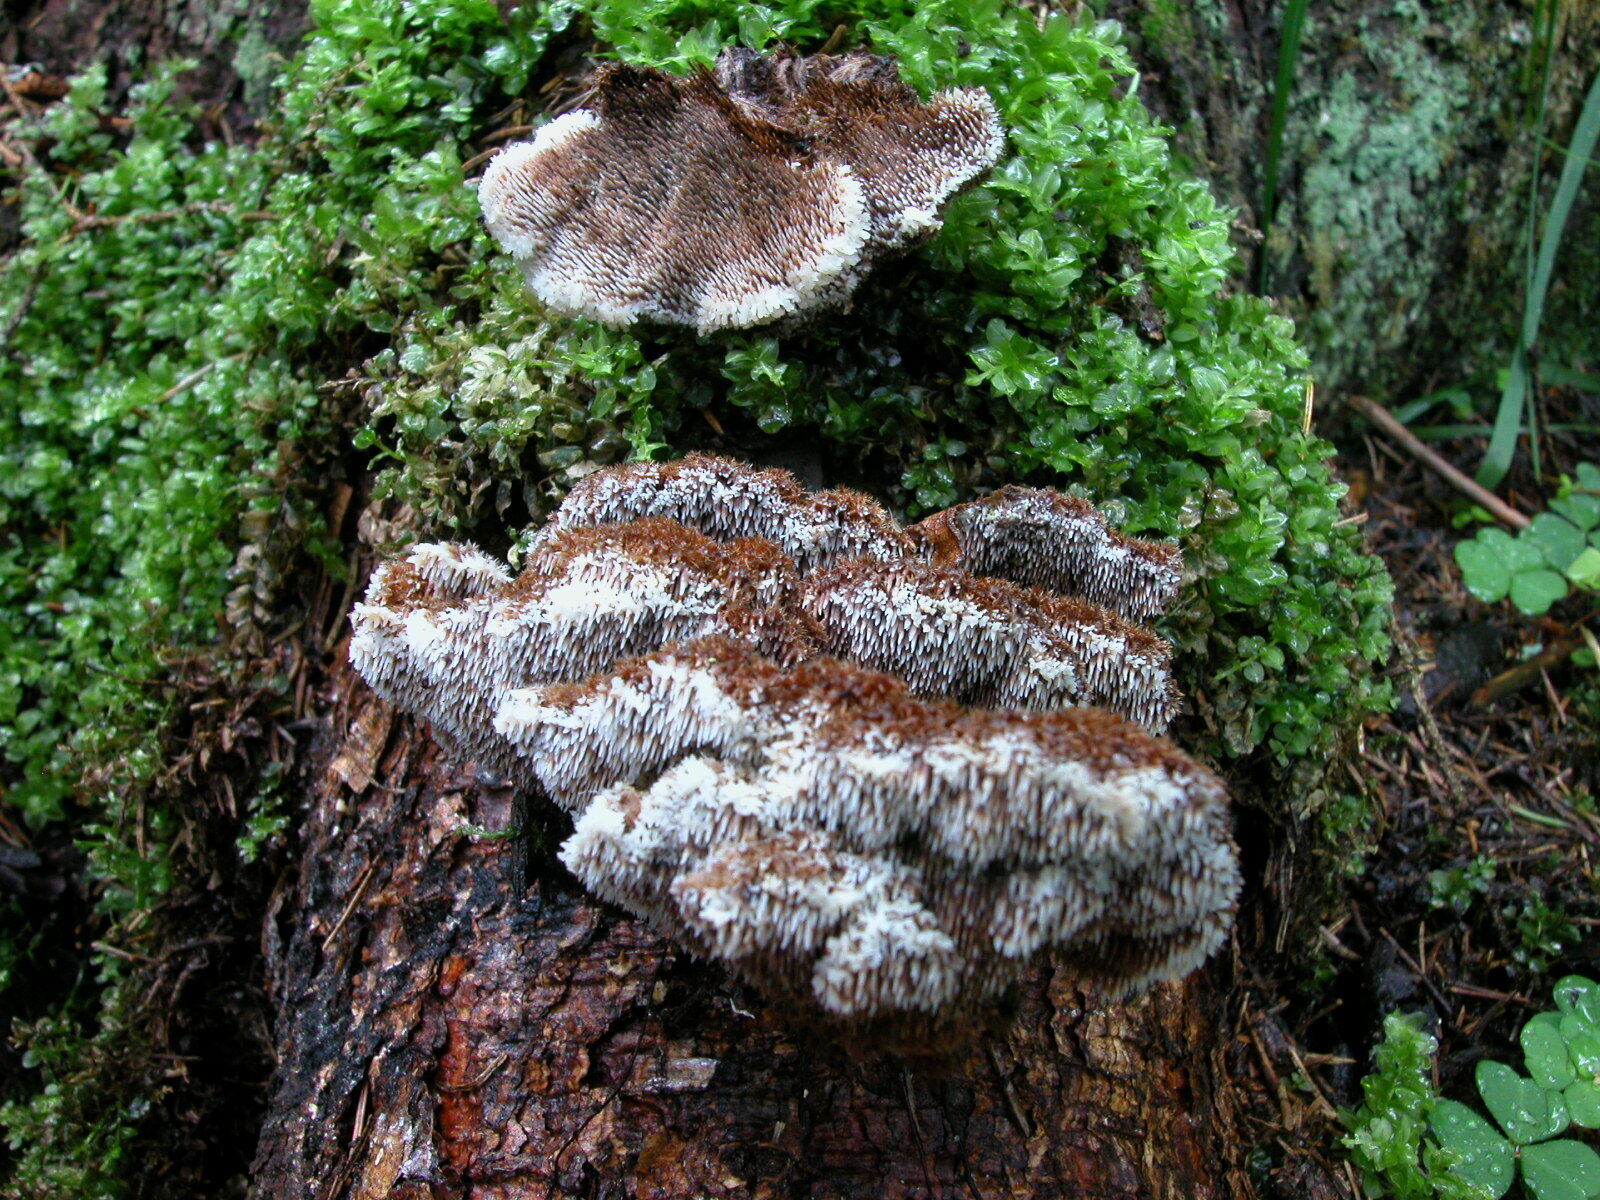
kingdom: Fungi
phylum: Basidiomycota
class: Agaricomycetes
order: Russulales
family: Bondarzewiaceae
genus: Gloiodon
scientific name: Gloiodon strigosus
